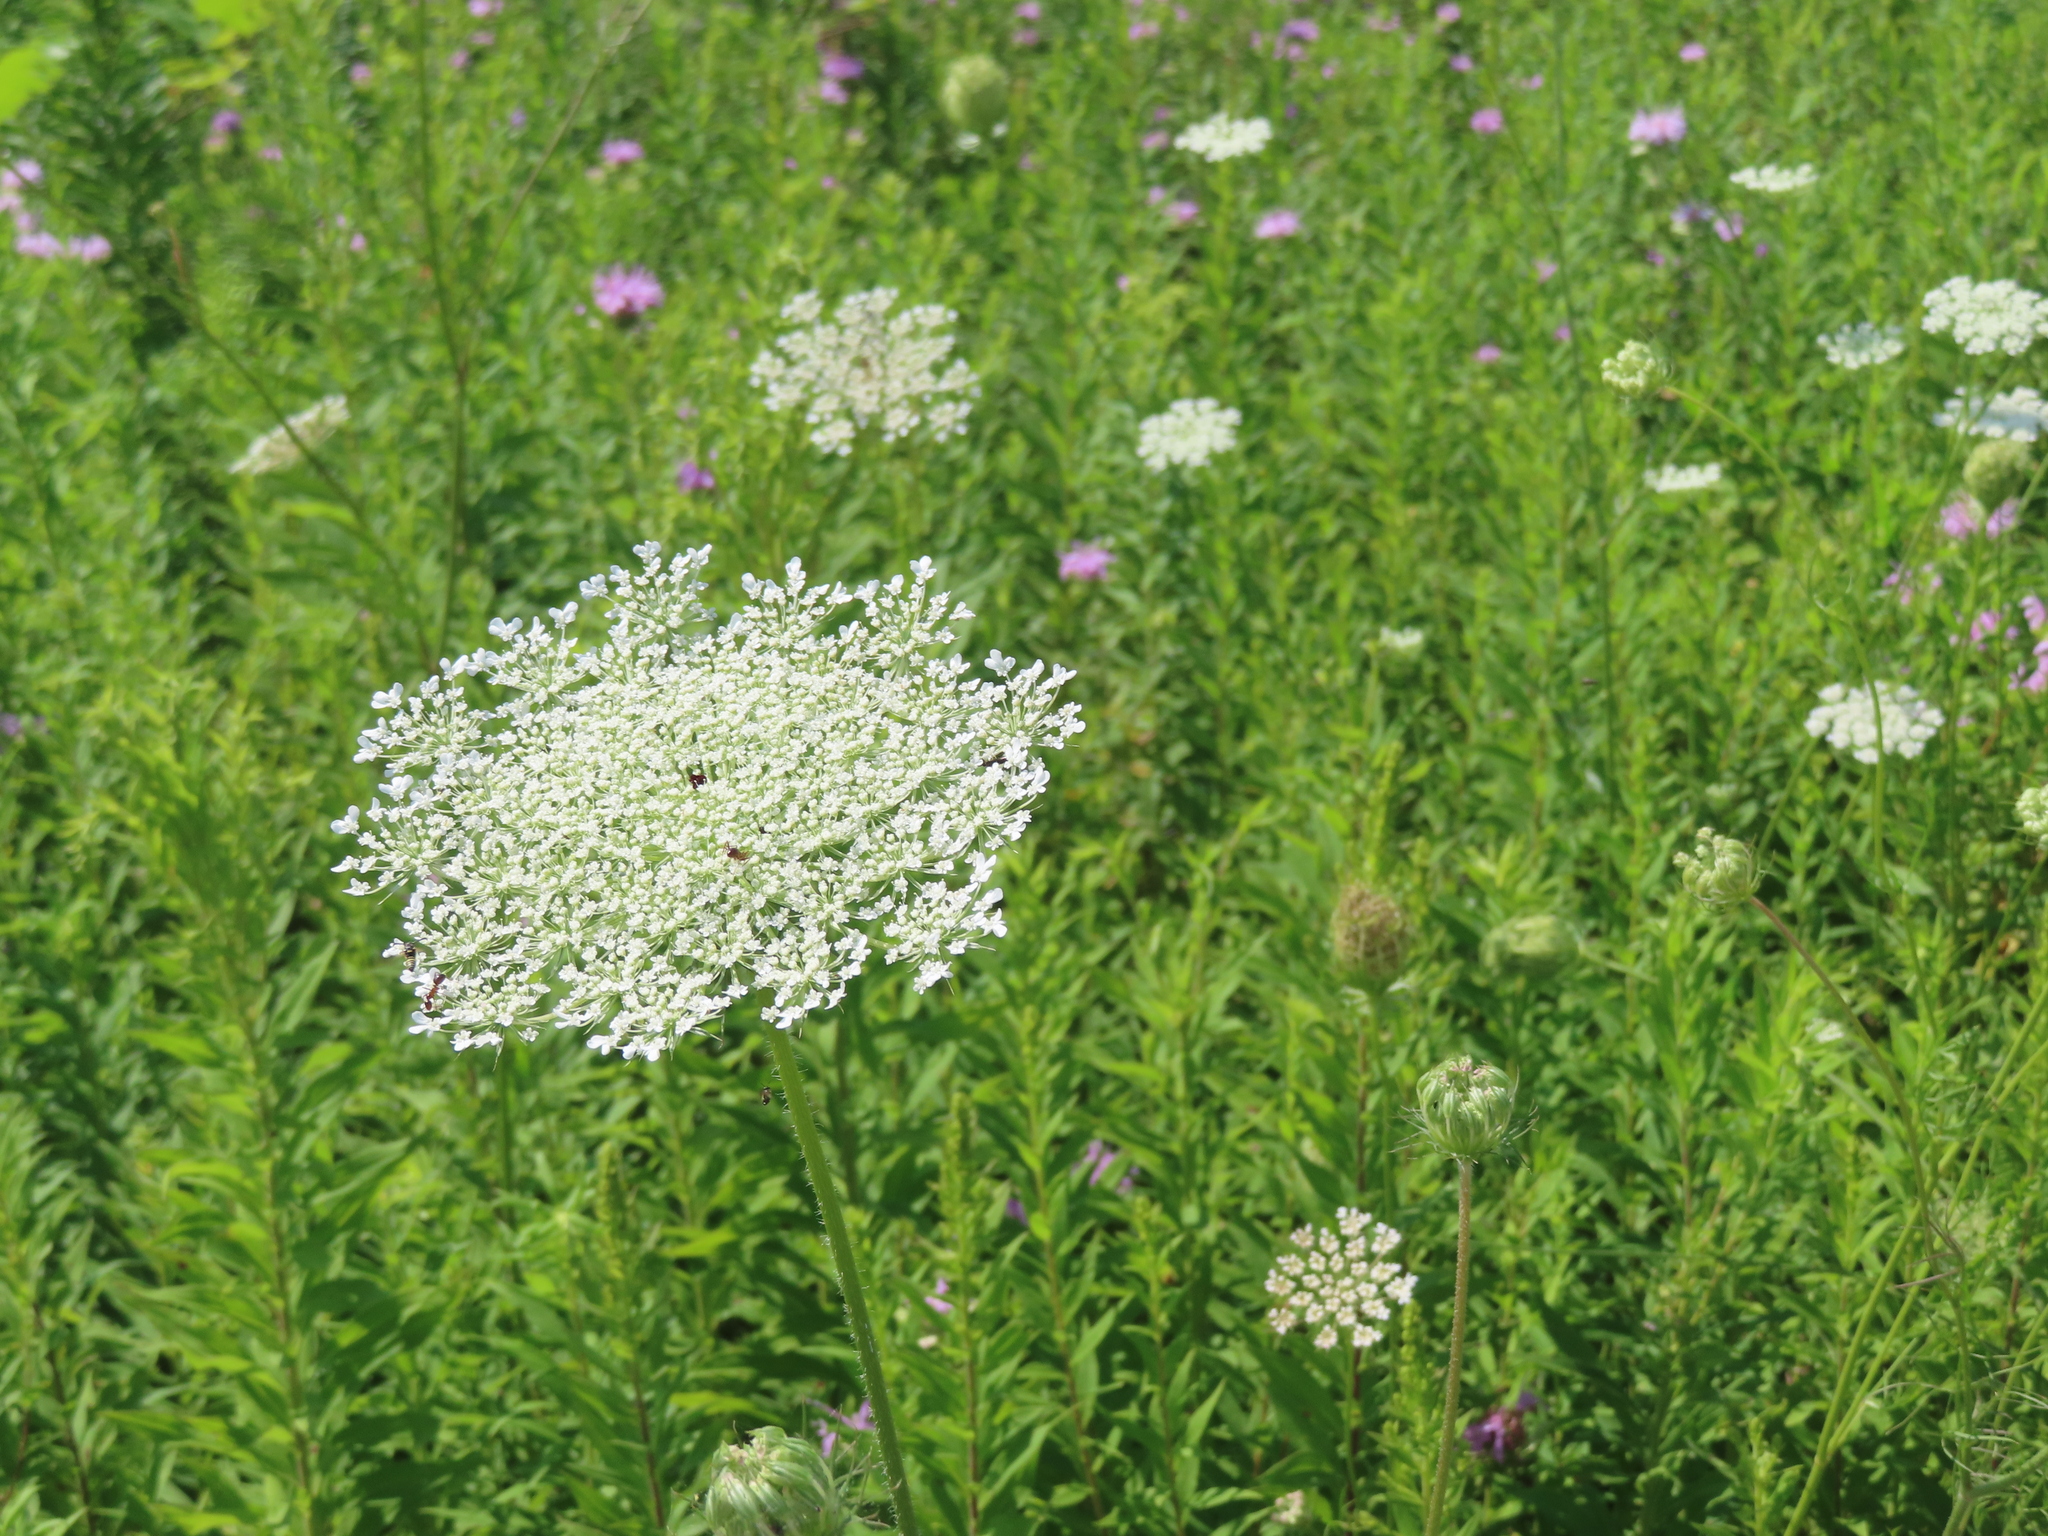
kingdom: Plantae
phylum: Tracheophyta
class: Magnoliopsida
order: Apiales
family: Apiaceae
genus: Daucus
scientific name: Daucus carota
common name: Wild carrot
